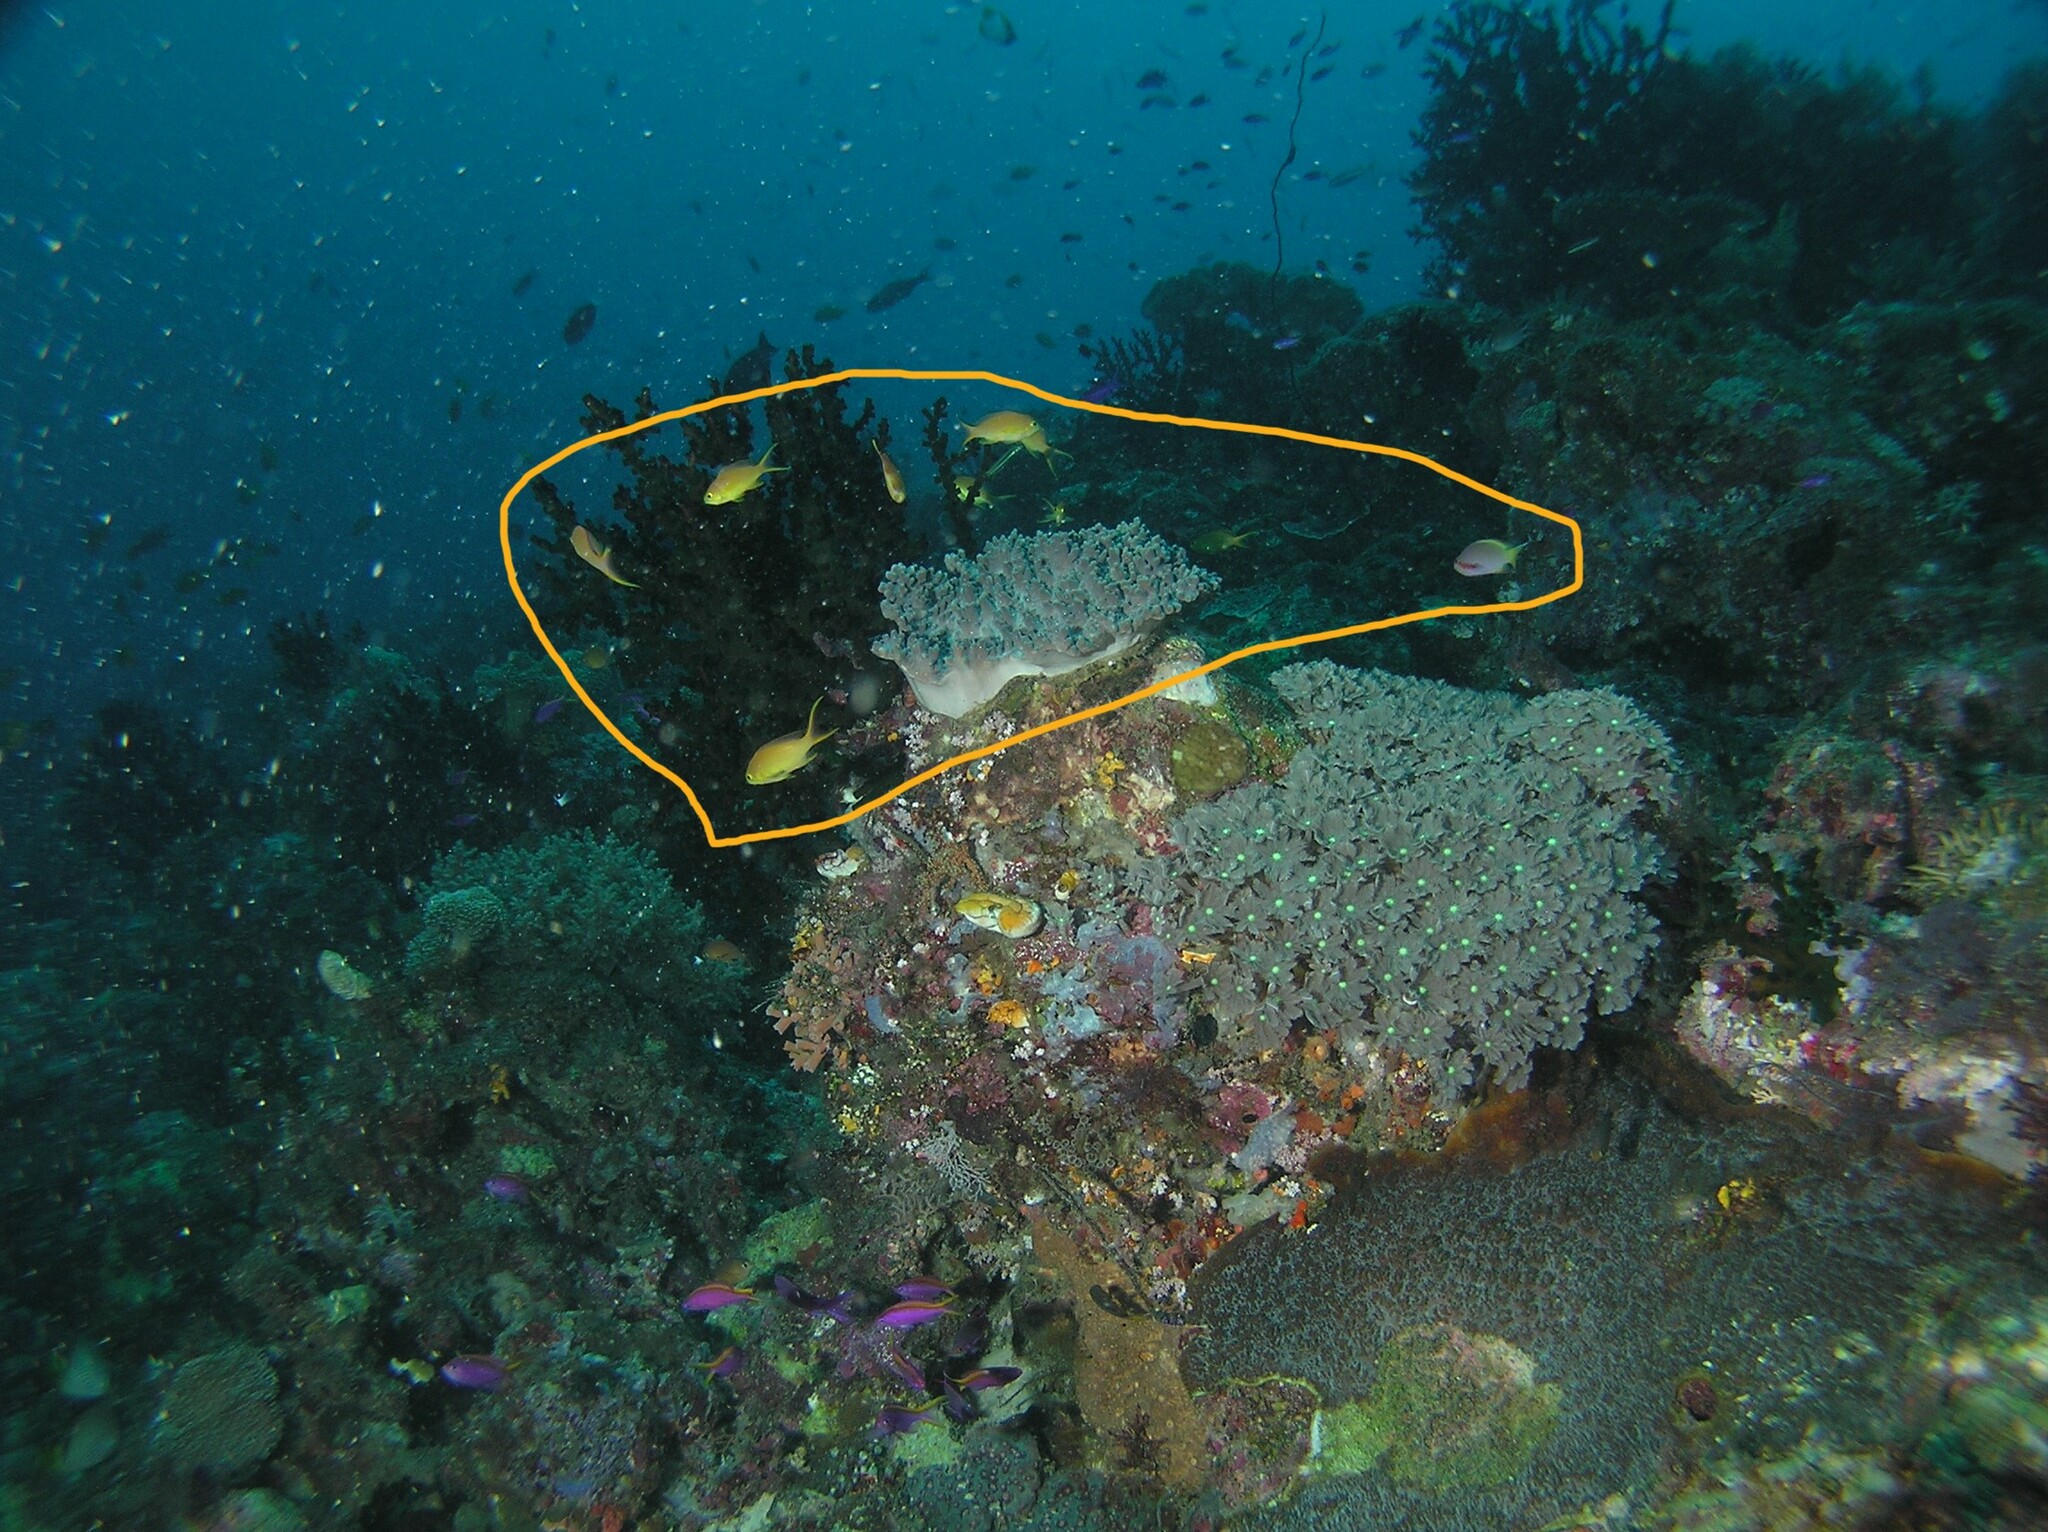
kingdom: Animalia
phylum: Chordata
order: Perciformes
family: Serranidae
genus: Pseudanthias
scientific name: Pseudanthias huchtii
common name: Pacific basslet
